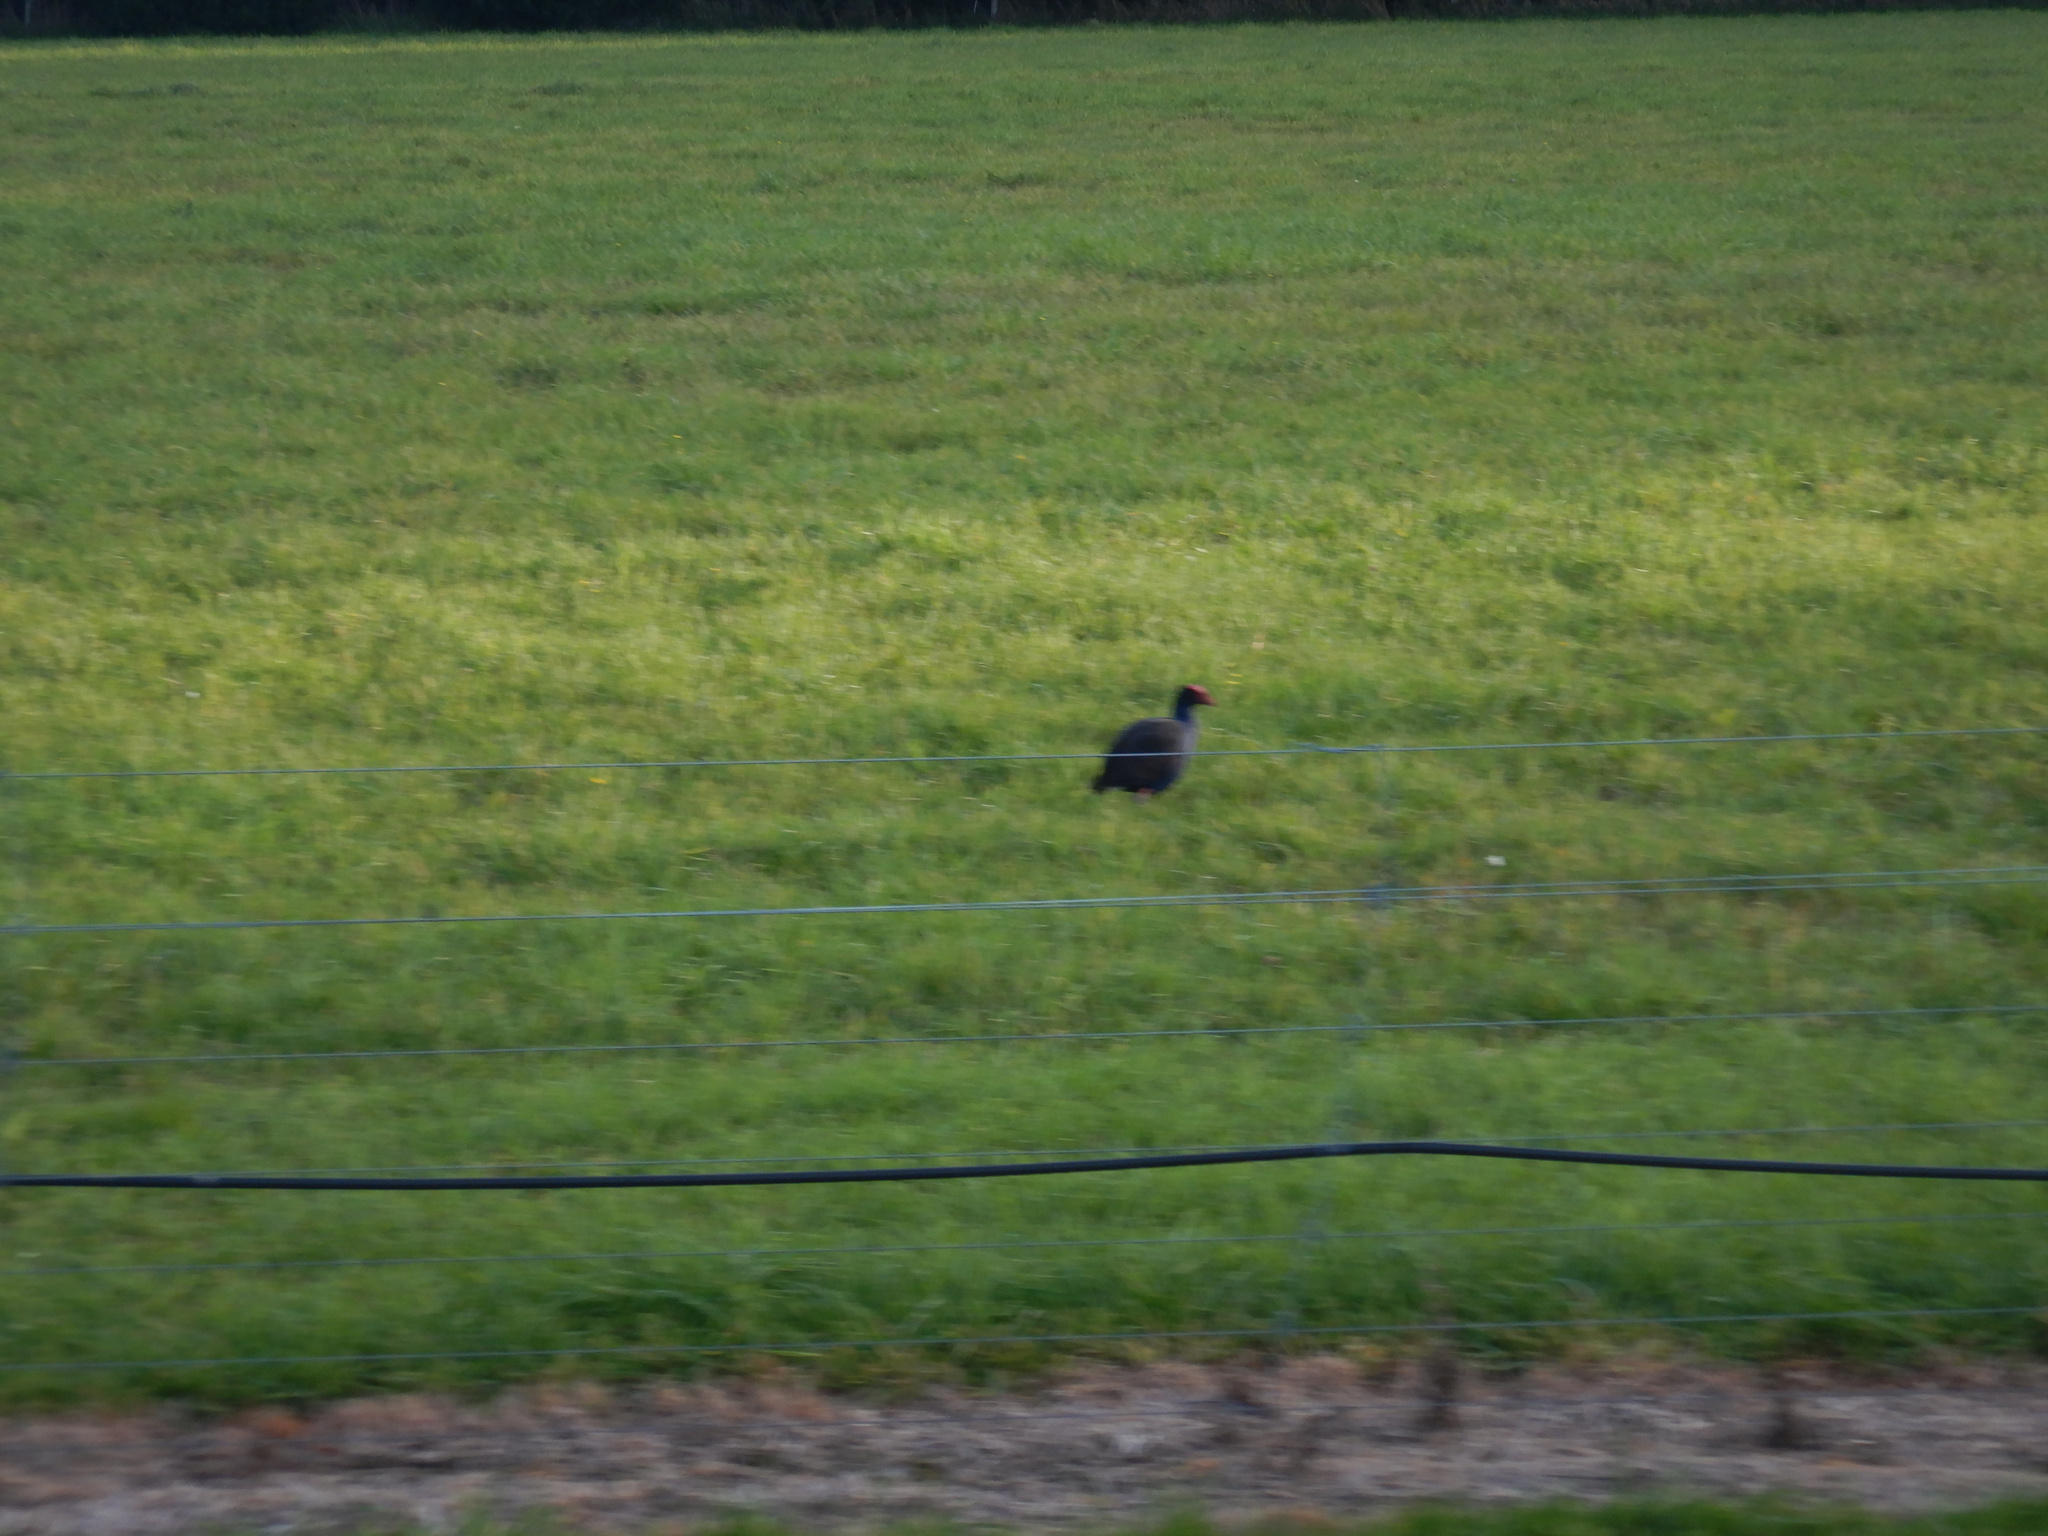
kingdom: Animalia
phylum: Chordata
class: Aves
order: Gruiformes
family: Rallidae
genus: Porphyrio
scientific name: Porphyrio melanotus
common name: Australasian swamphen
